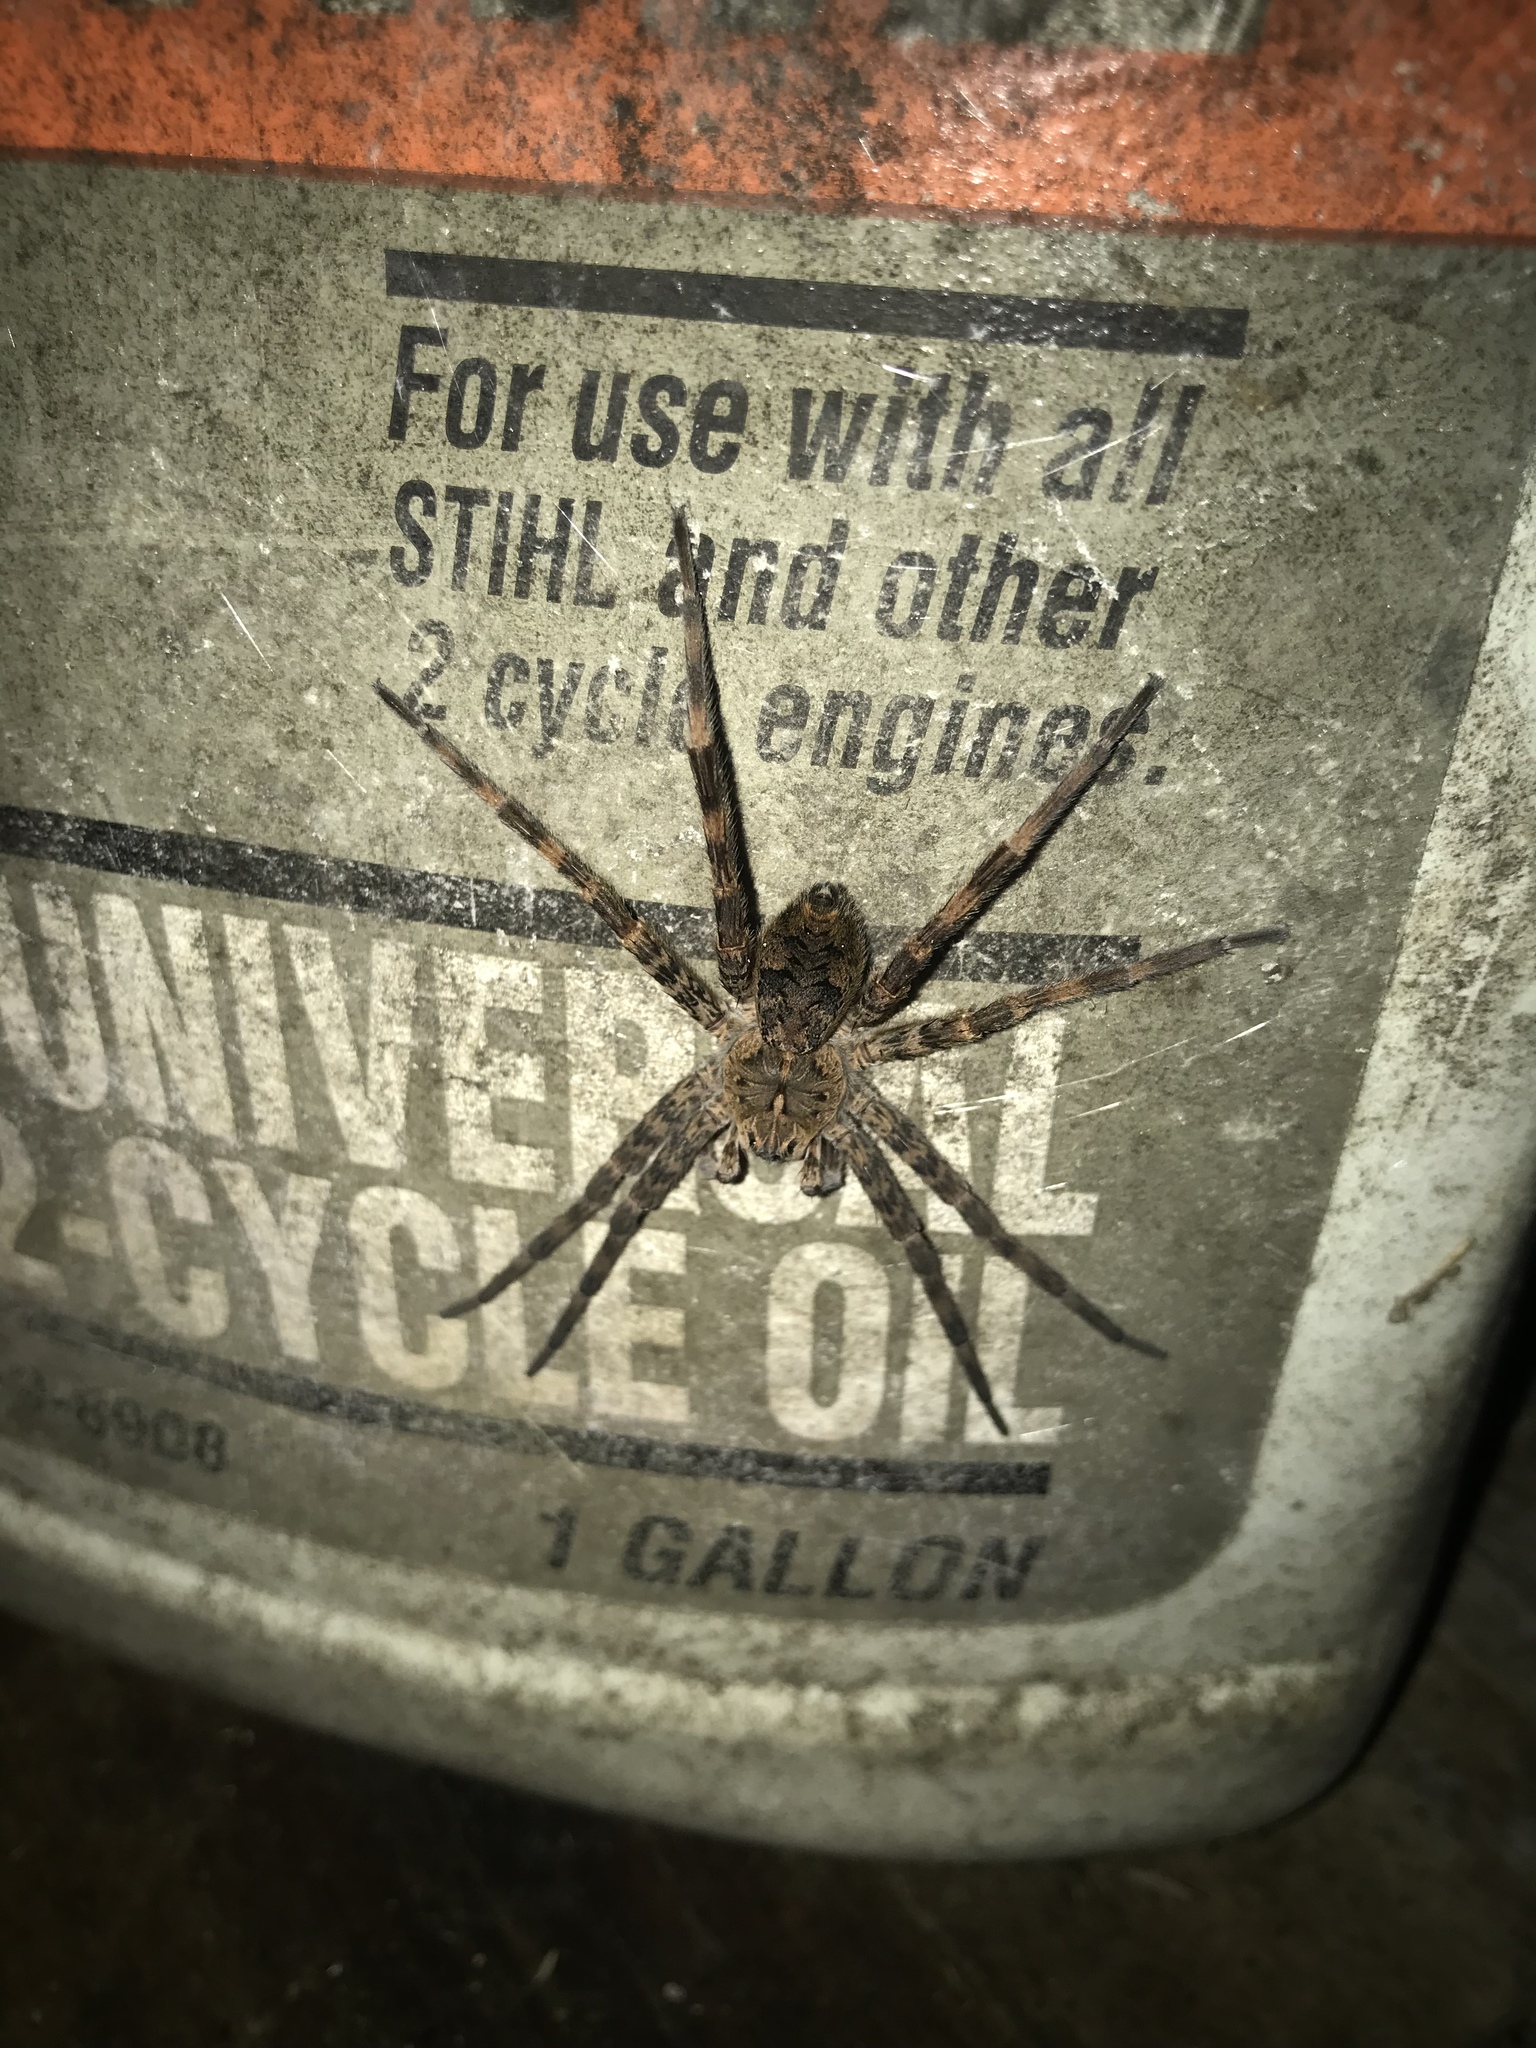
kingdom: Animalia
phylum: Arthropoda
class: Arachnida
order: Araneae
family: Pisauridae
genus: Dolomedes
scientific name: Dolomedes tenebrosus
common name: Dark fishing spider
